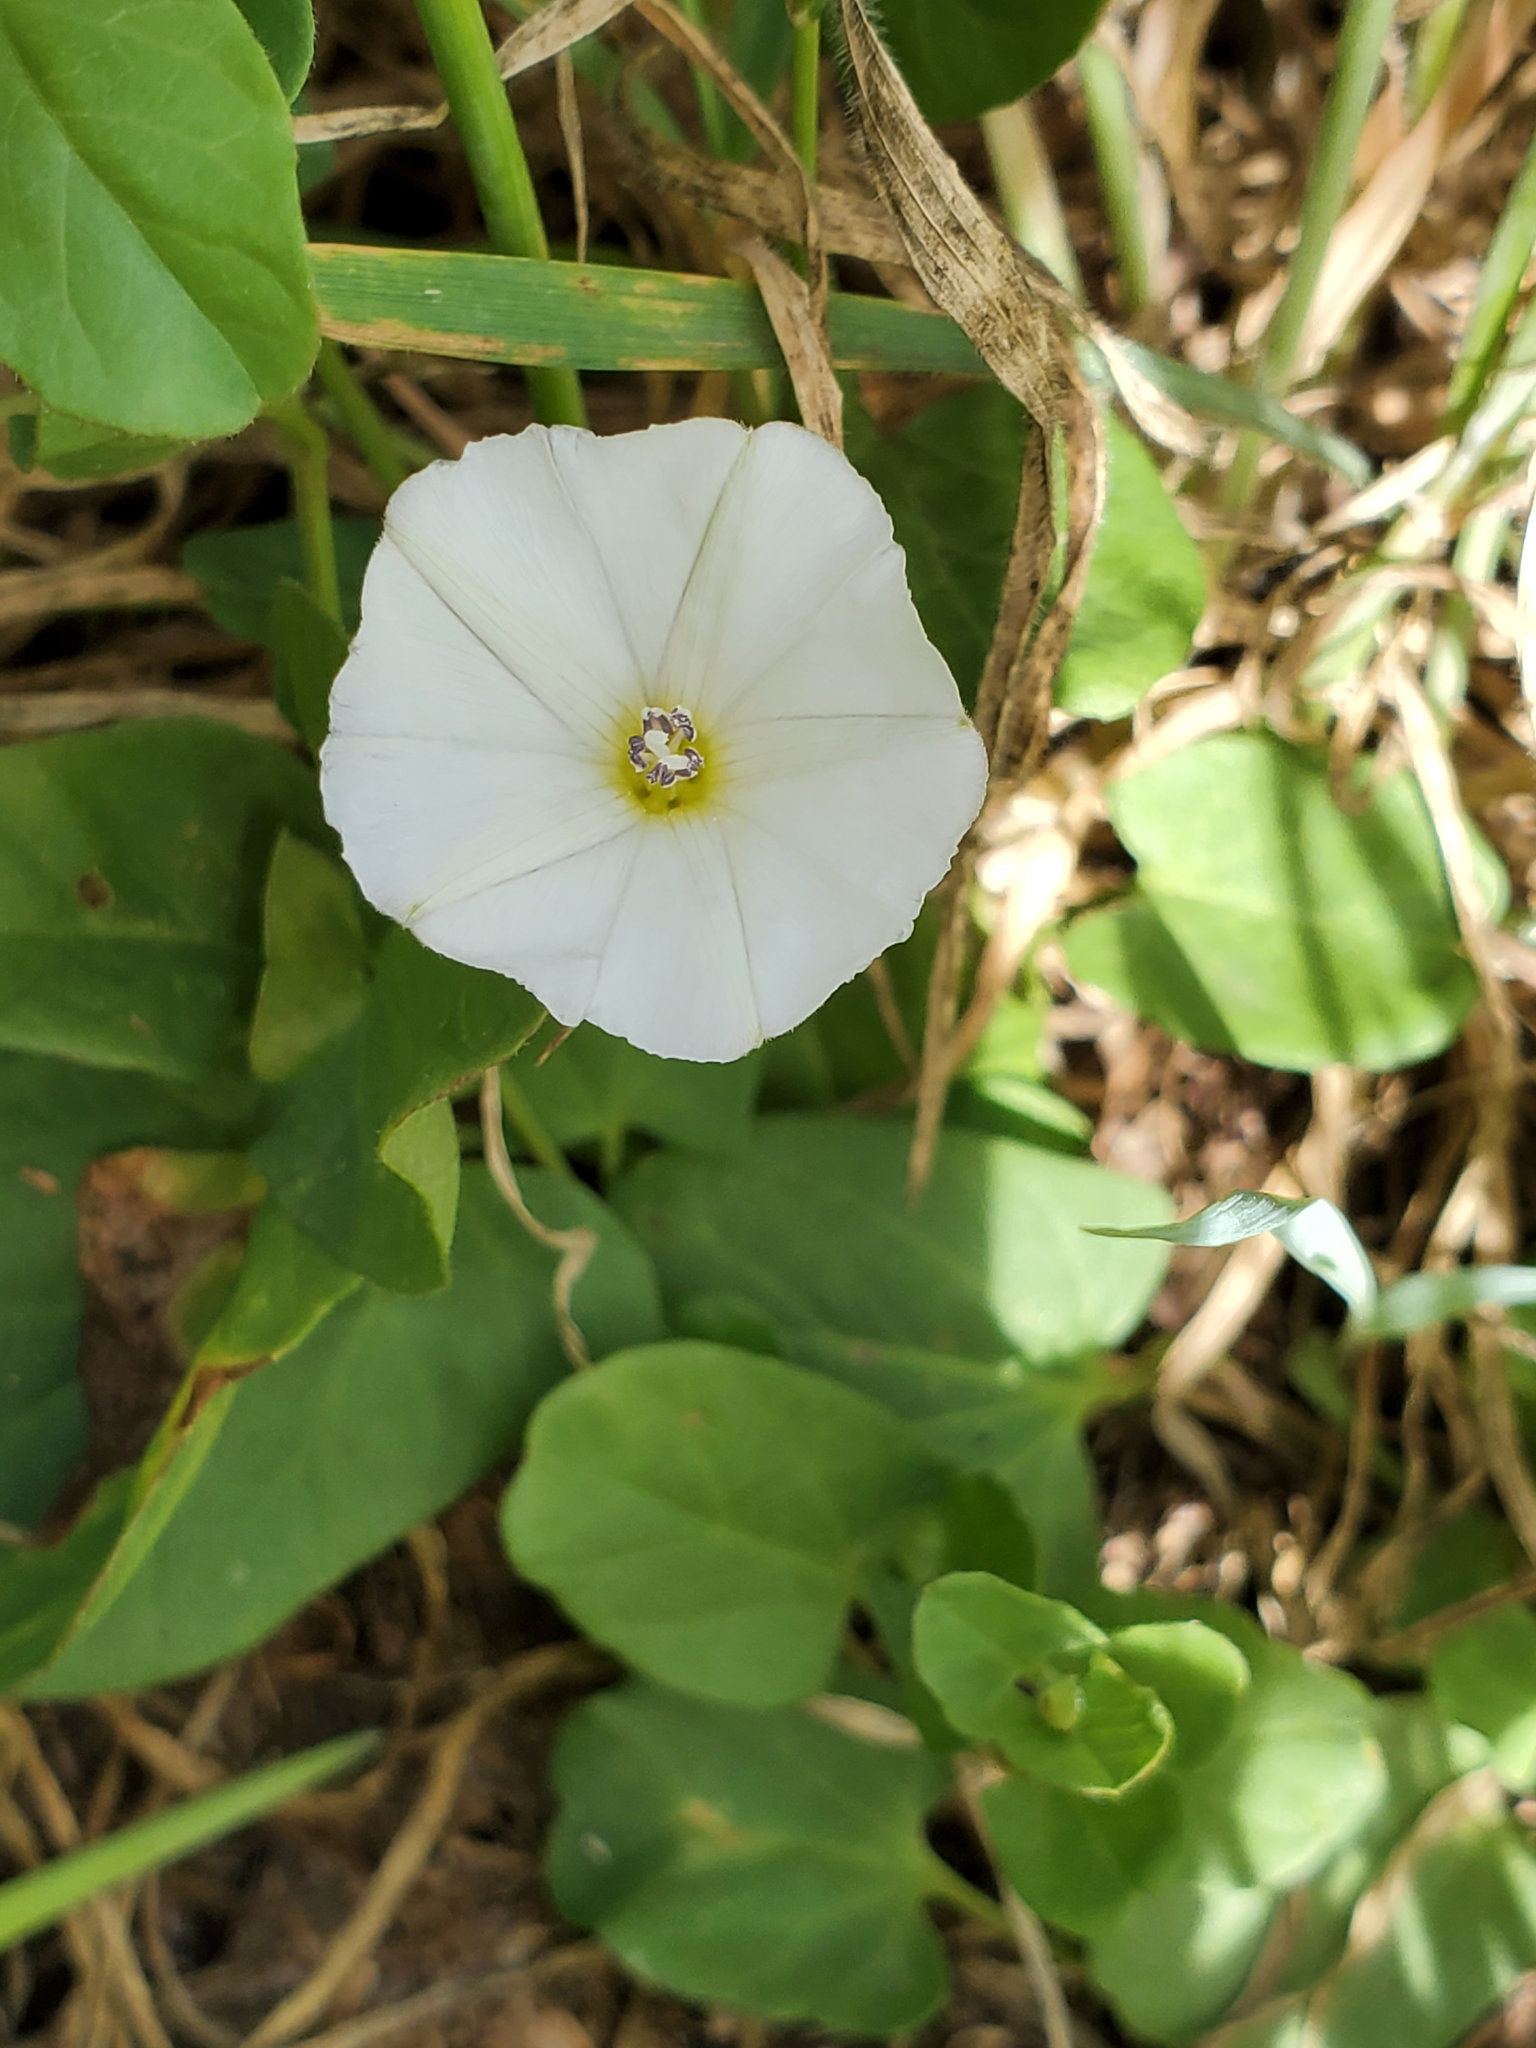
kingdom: Plantae
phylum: Tracheophyta
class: Magnoliopsida
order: Solanales
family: Convolvulaceae
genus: Convolvulus
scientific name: Convolvulus arvensis
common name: Field bindweed
